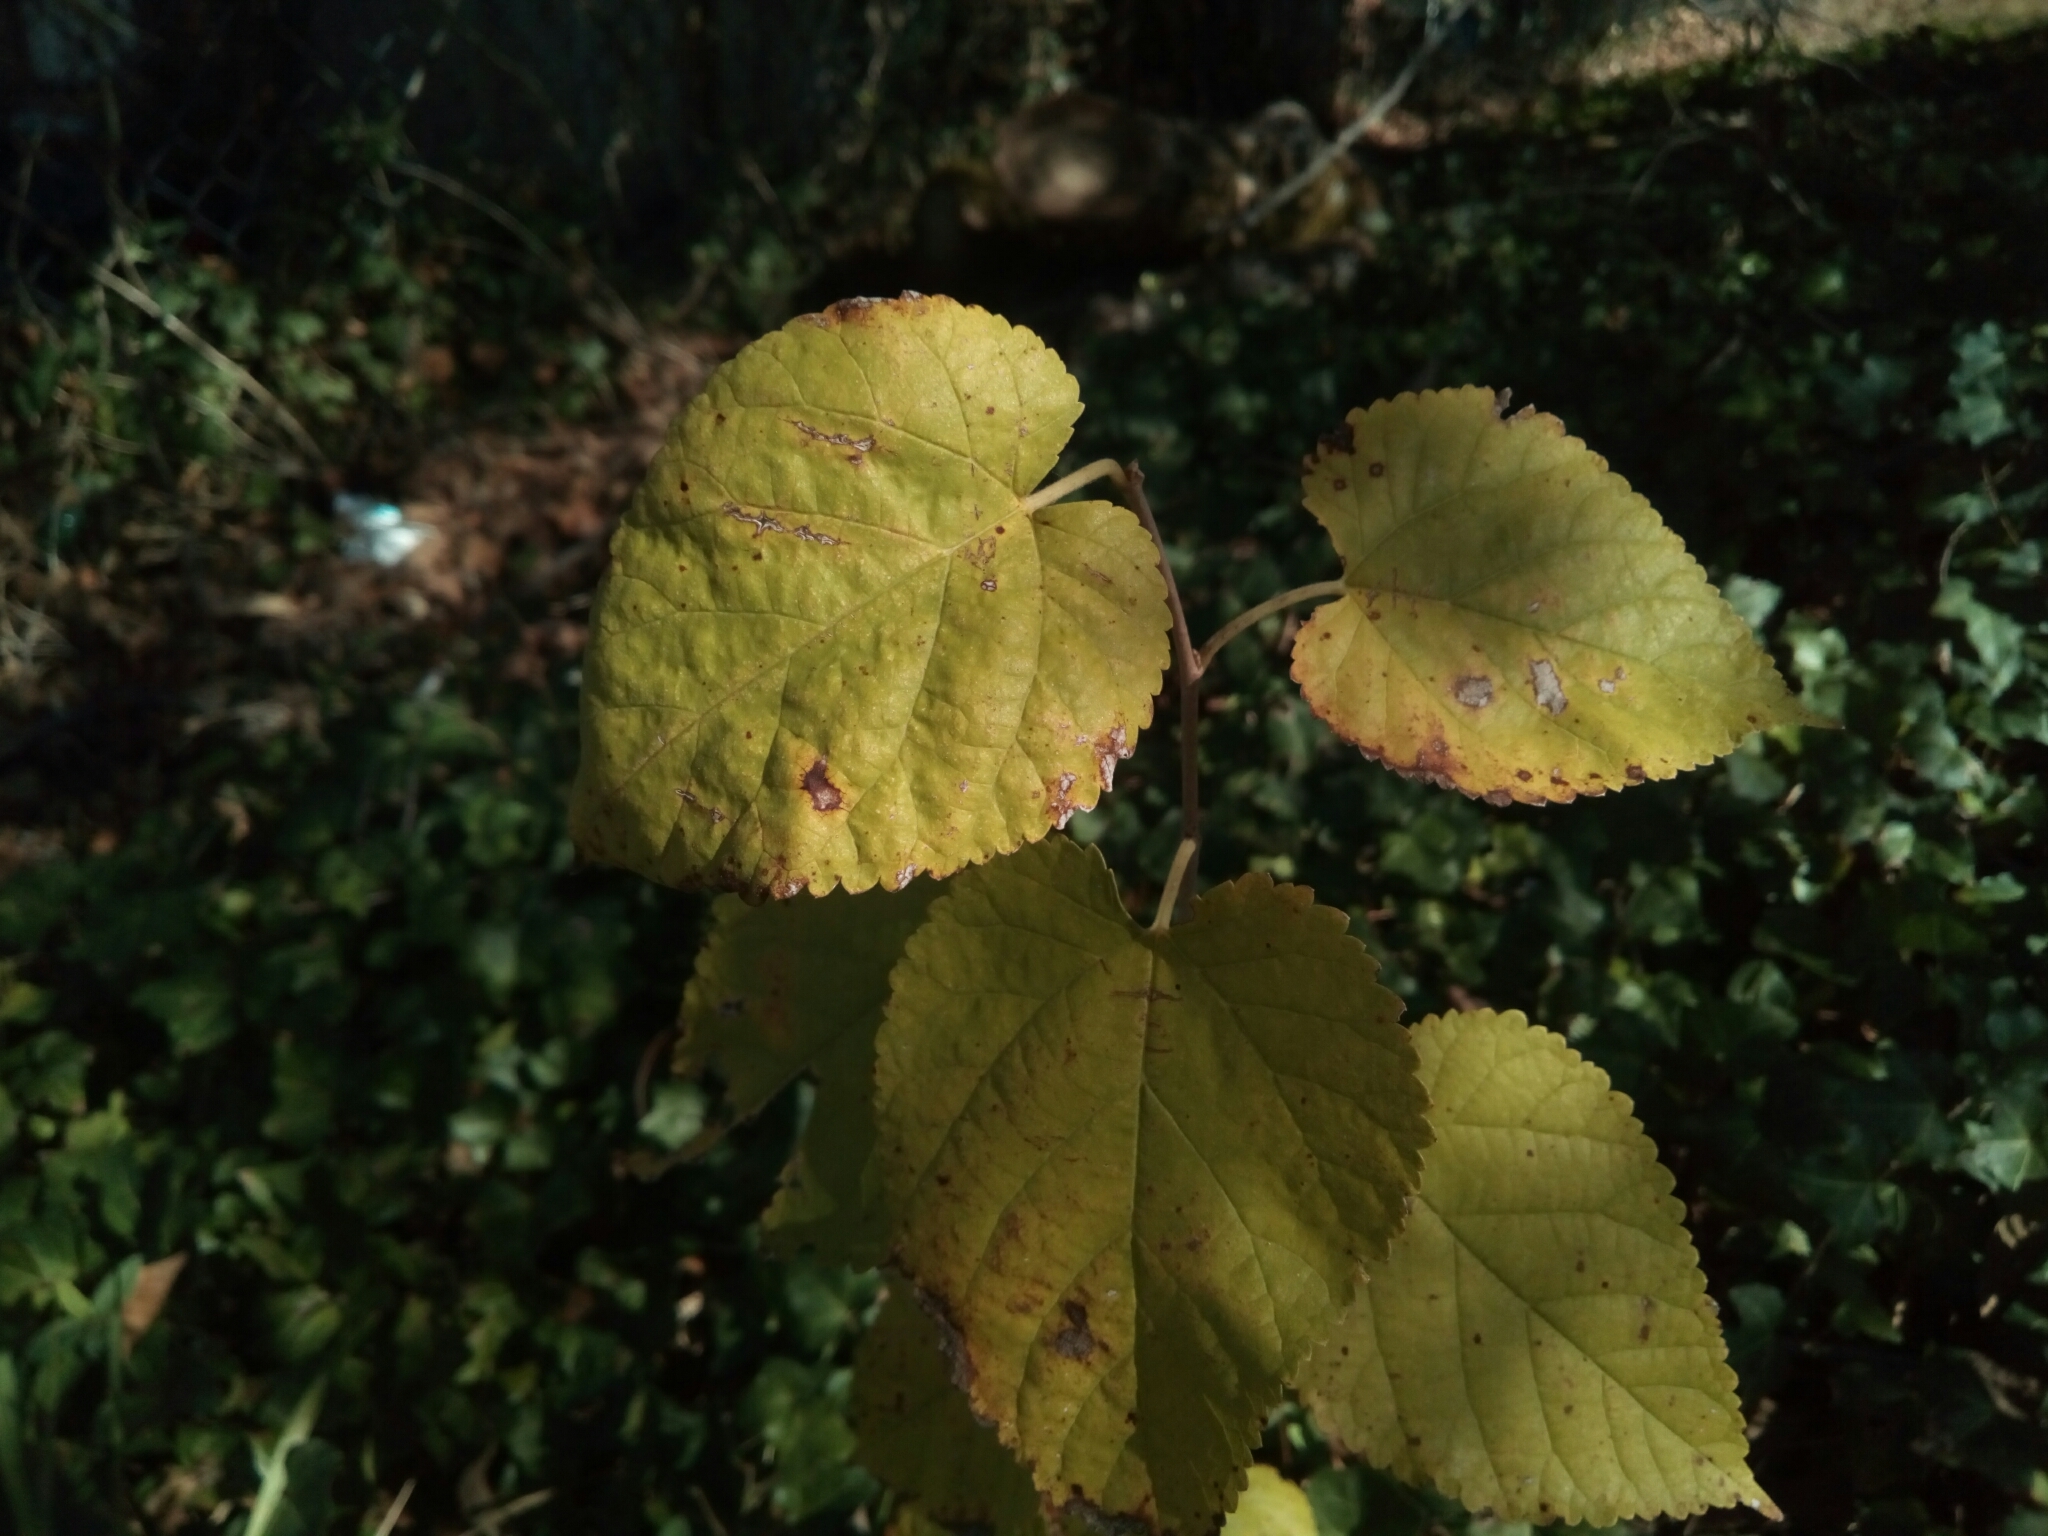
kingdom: Plantae
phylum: Tracheophyta
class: Magnoliopsida
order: Rosales
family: Moraceae
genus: Morus
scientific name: Morus rubra
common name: Red mulberry
